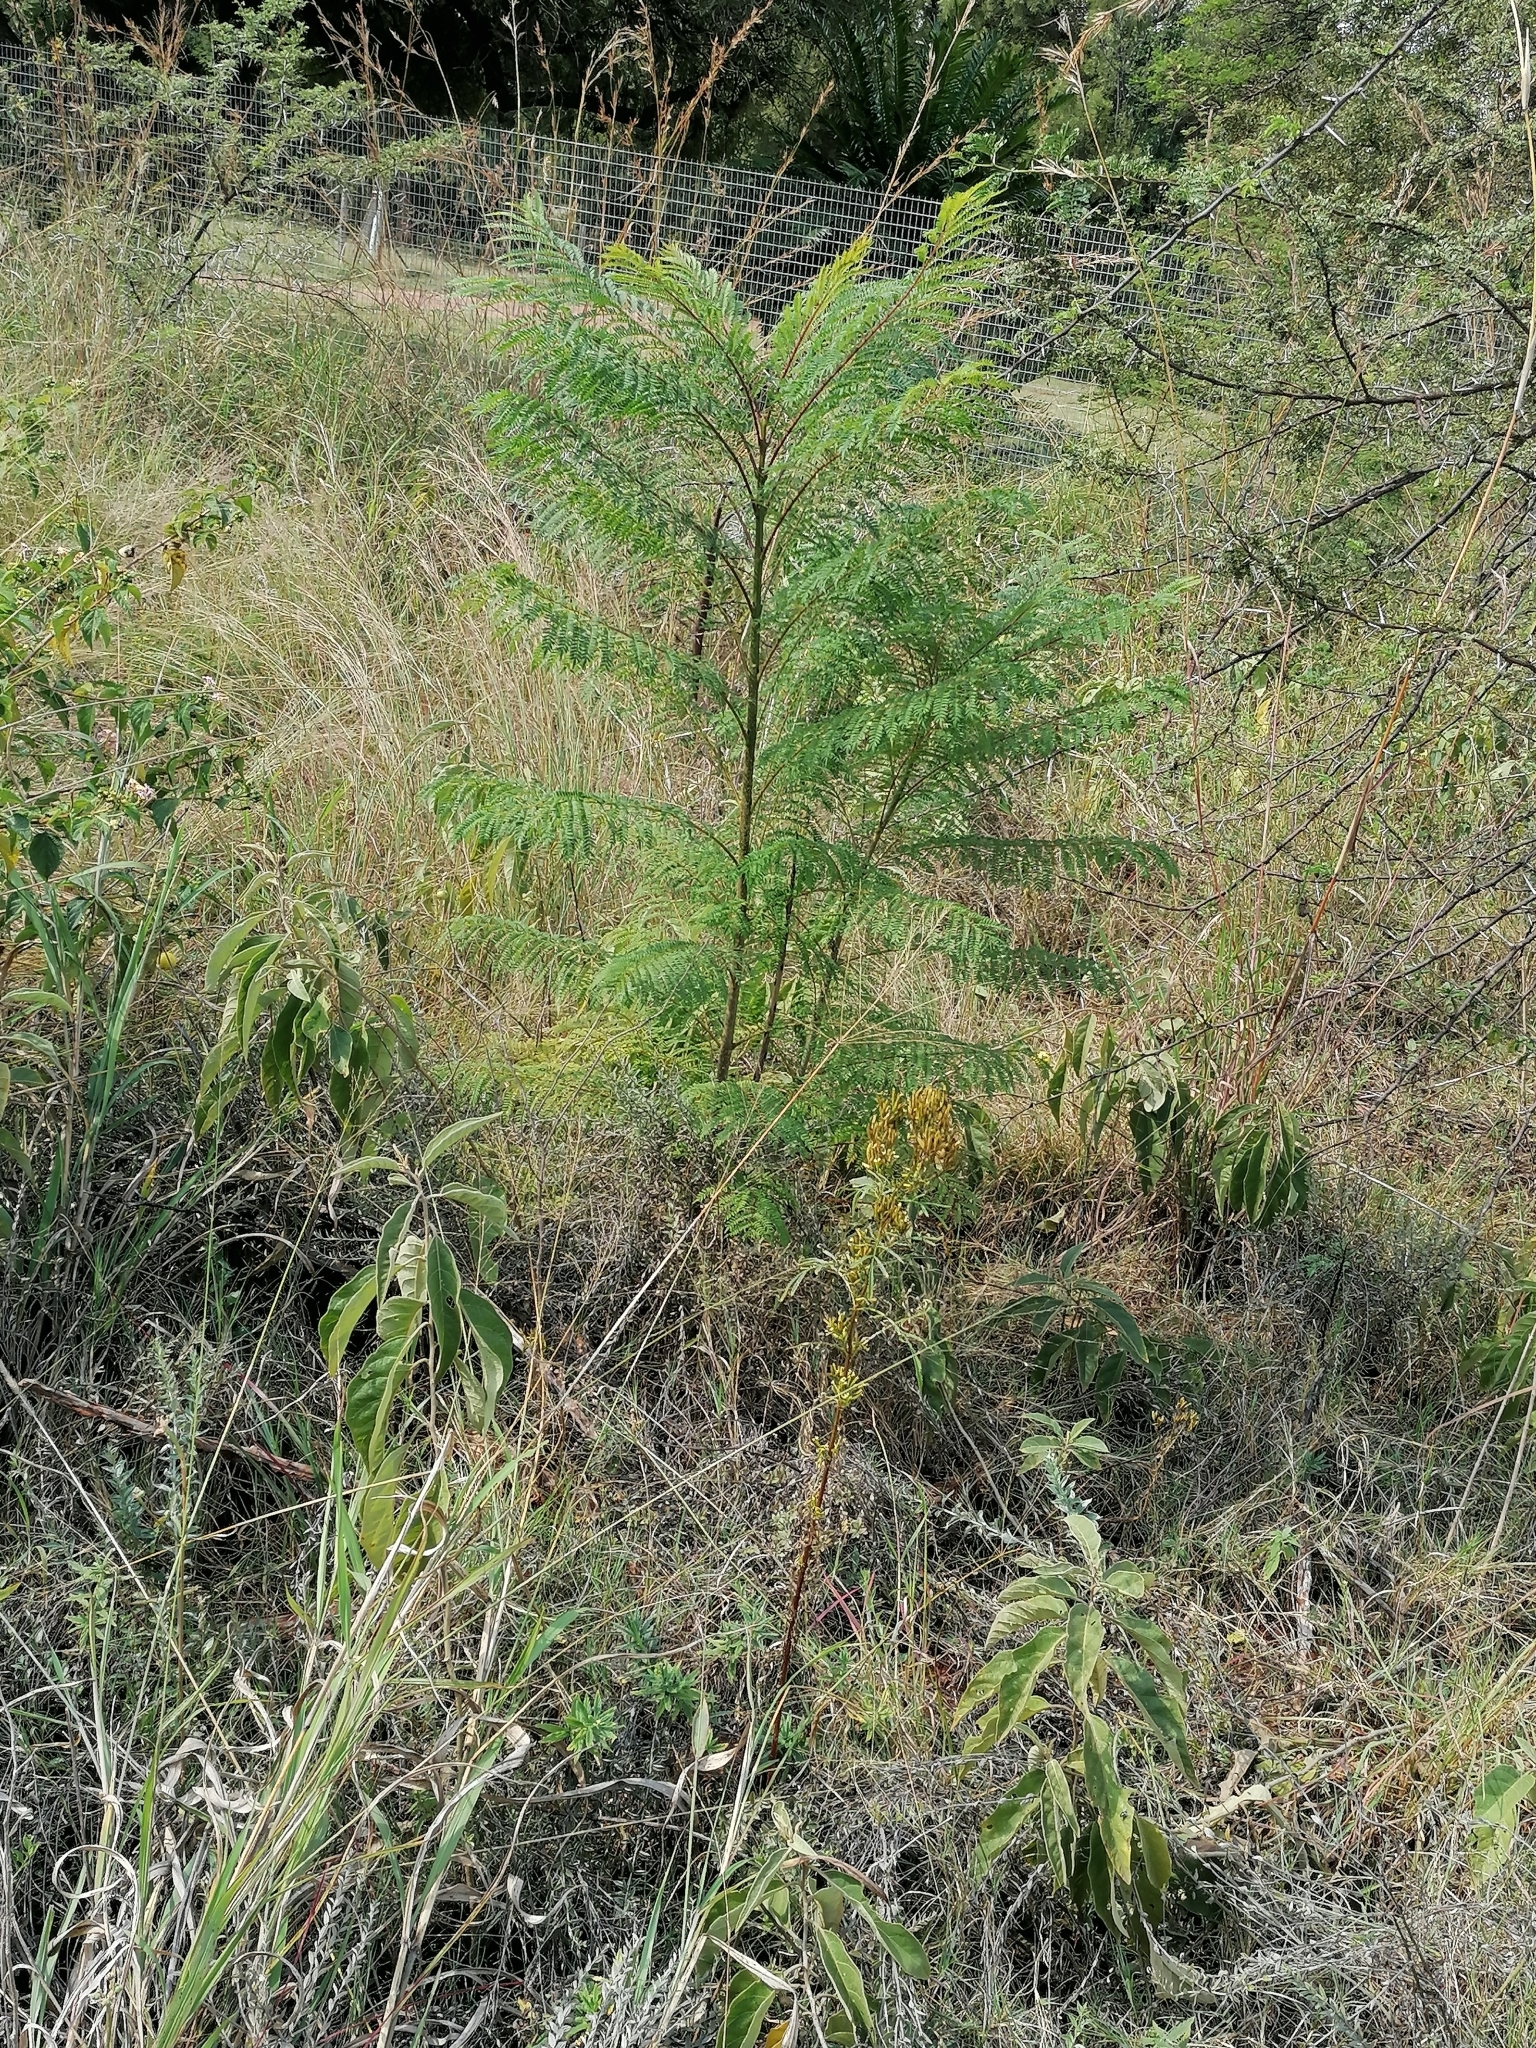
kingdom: Plantae
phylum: Tracheophyta
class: Magnoliopsida
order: Lamiales
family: Bignoniaceae
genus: Jacaranda
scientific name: Jacaranda mimosifolia
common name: Black poui
